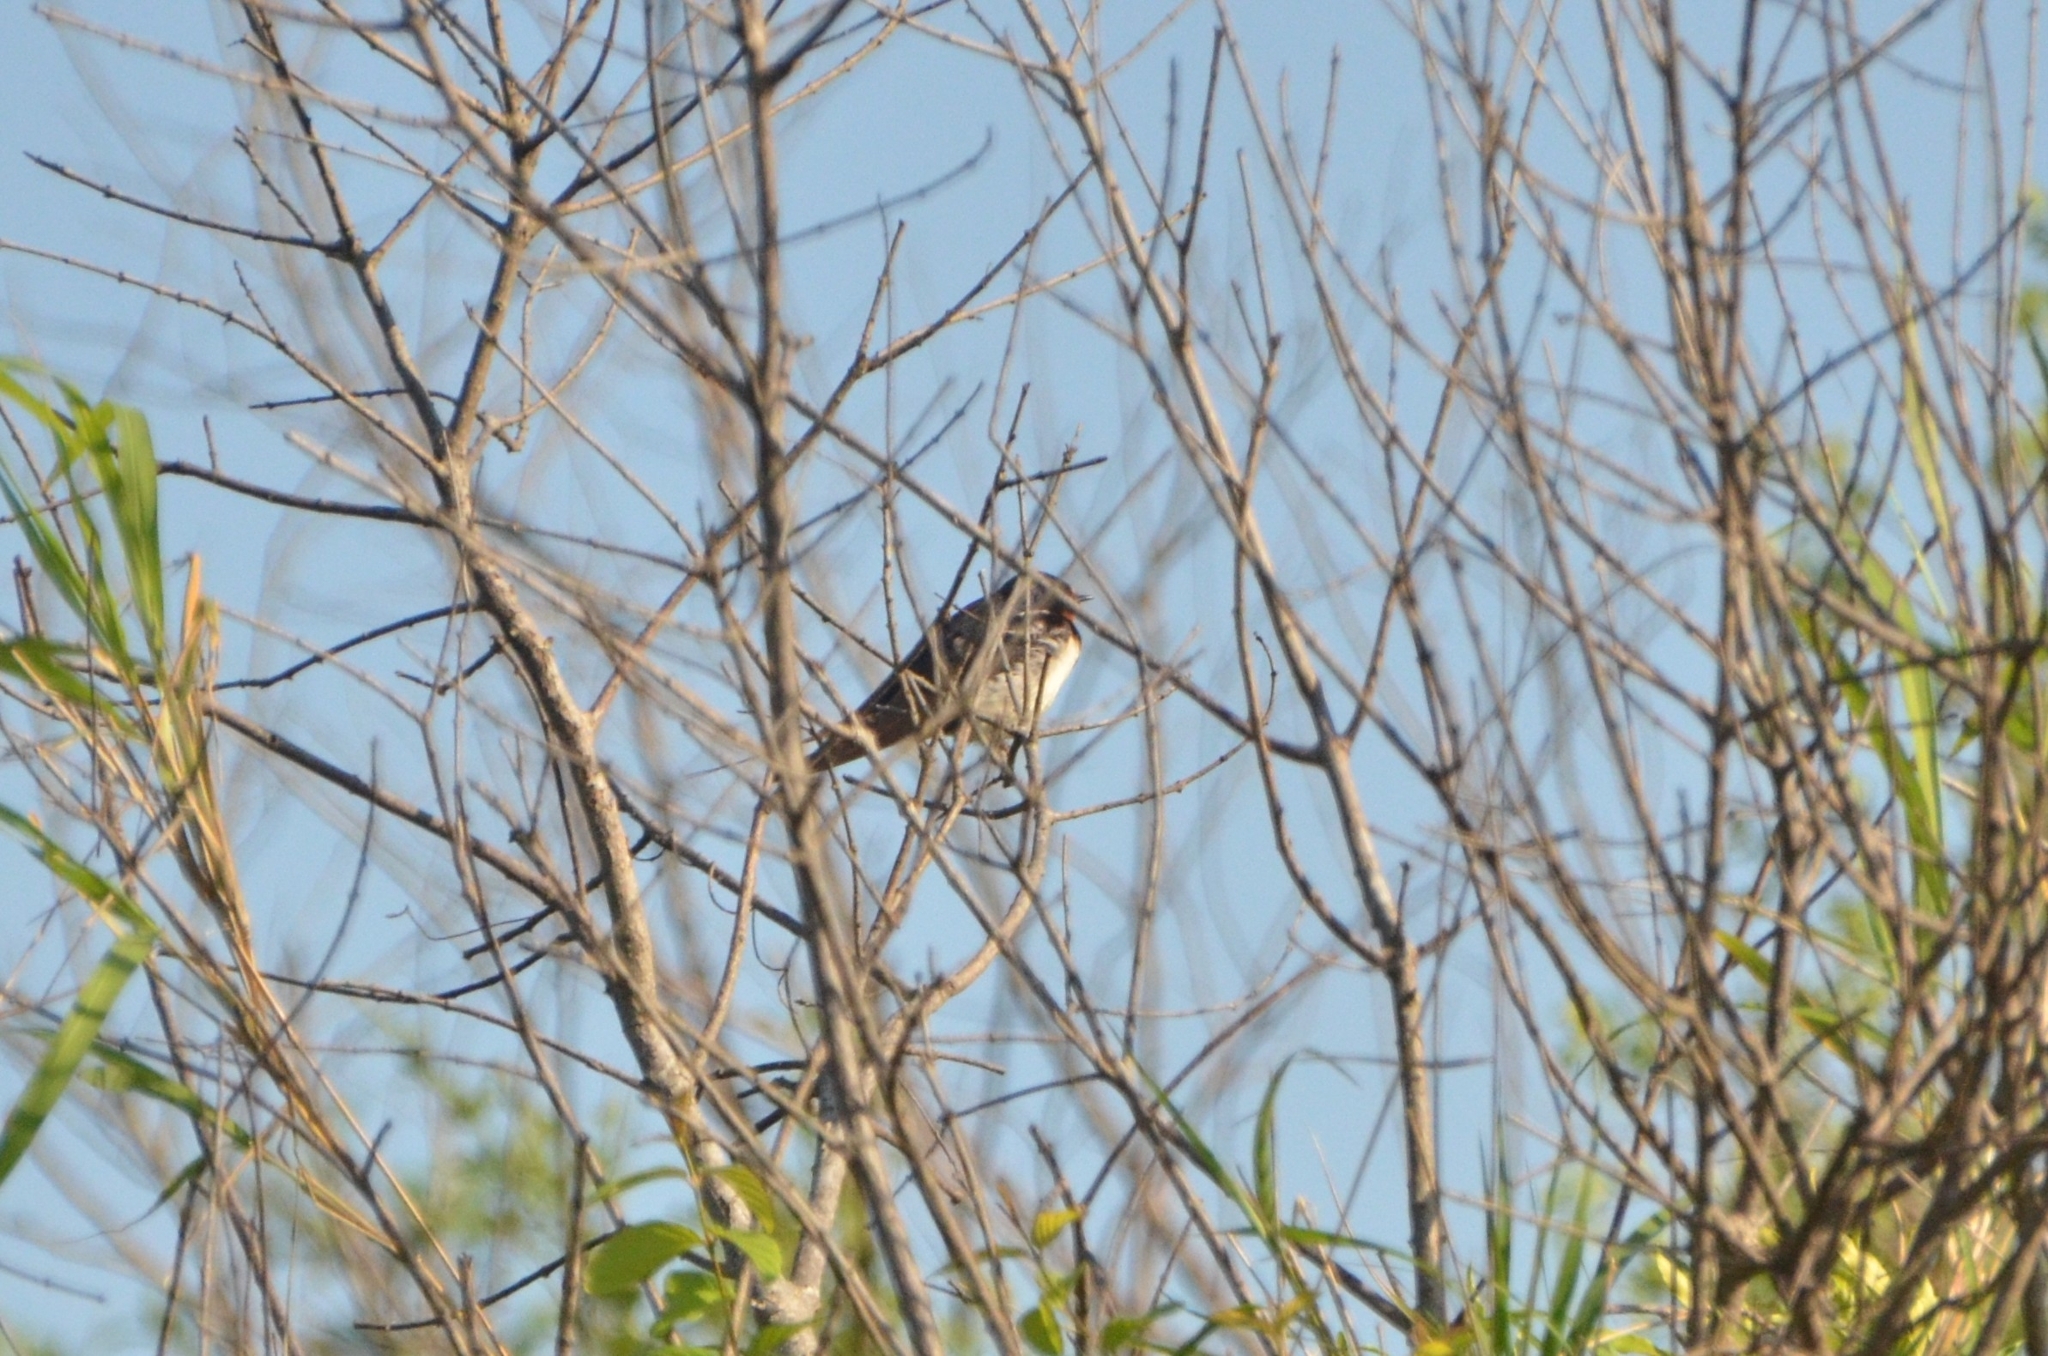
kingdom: Animalia
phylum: Chordata
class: Aves
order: Passeriformes
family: Hirundinidae
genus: Hirundo
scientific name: Hirundo rustica
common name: Barn swallow
